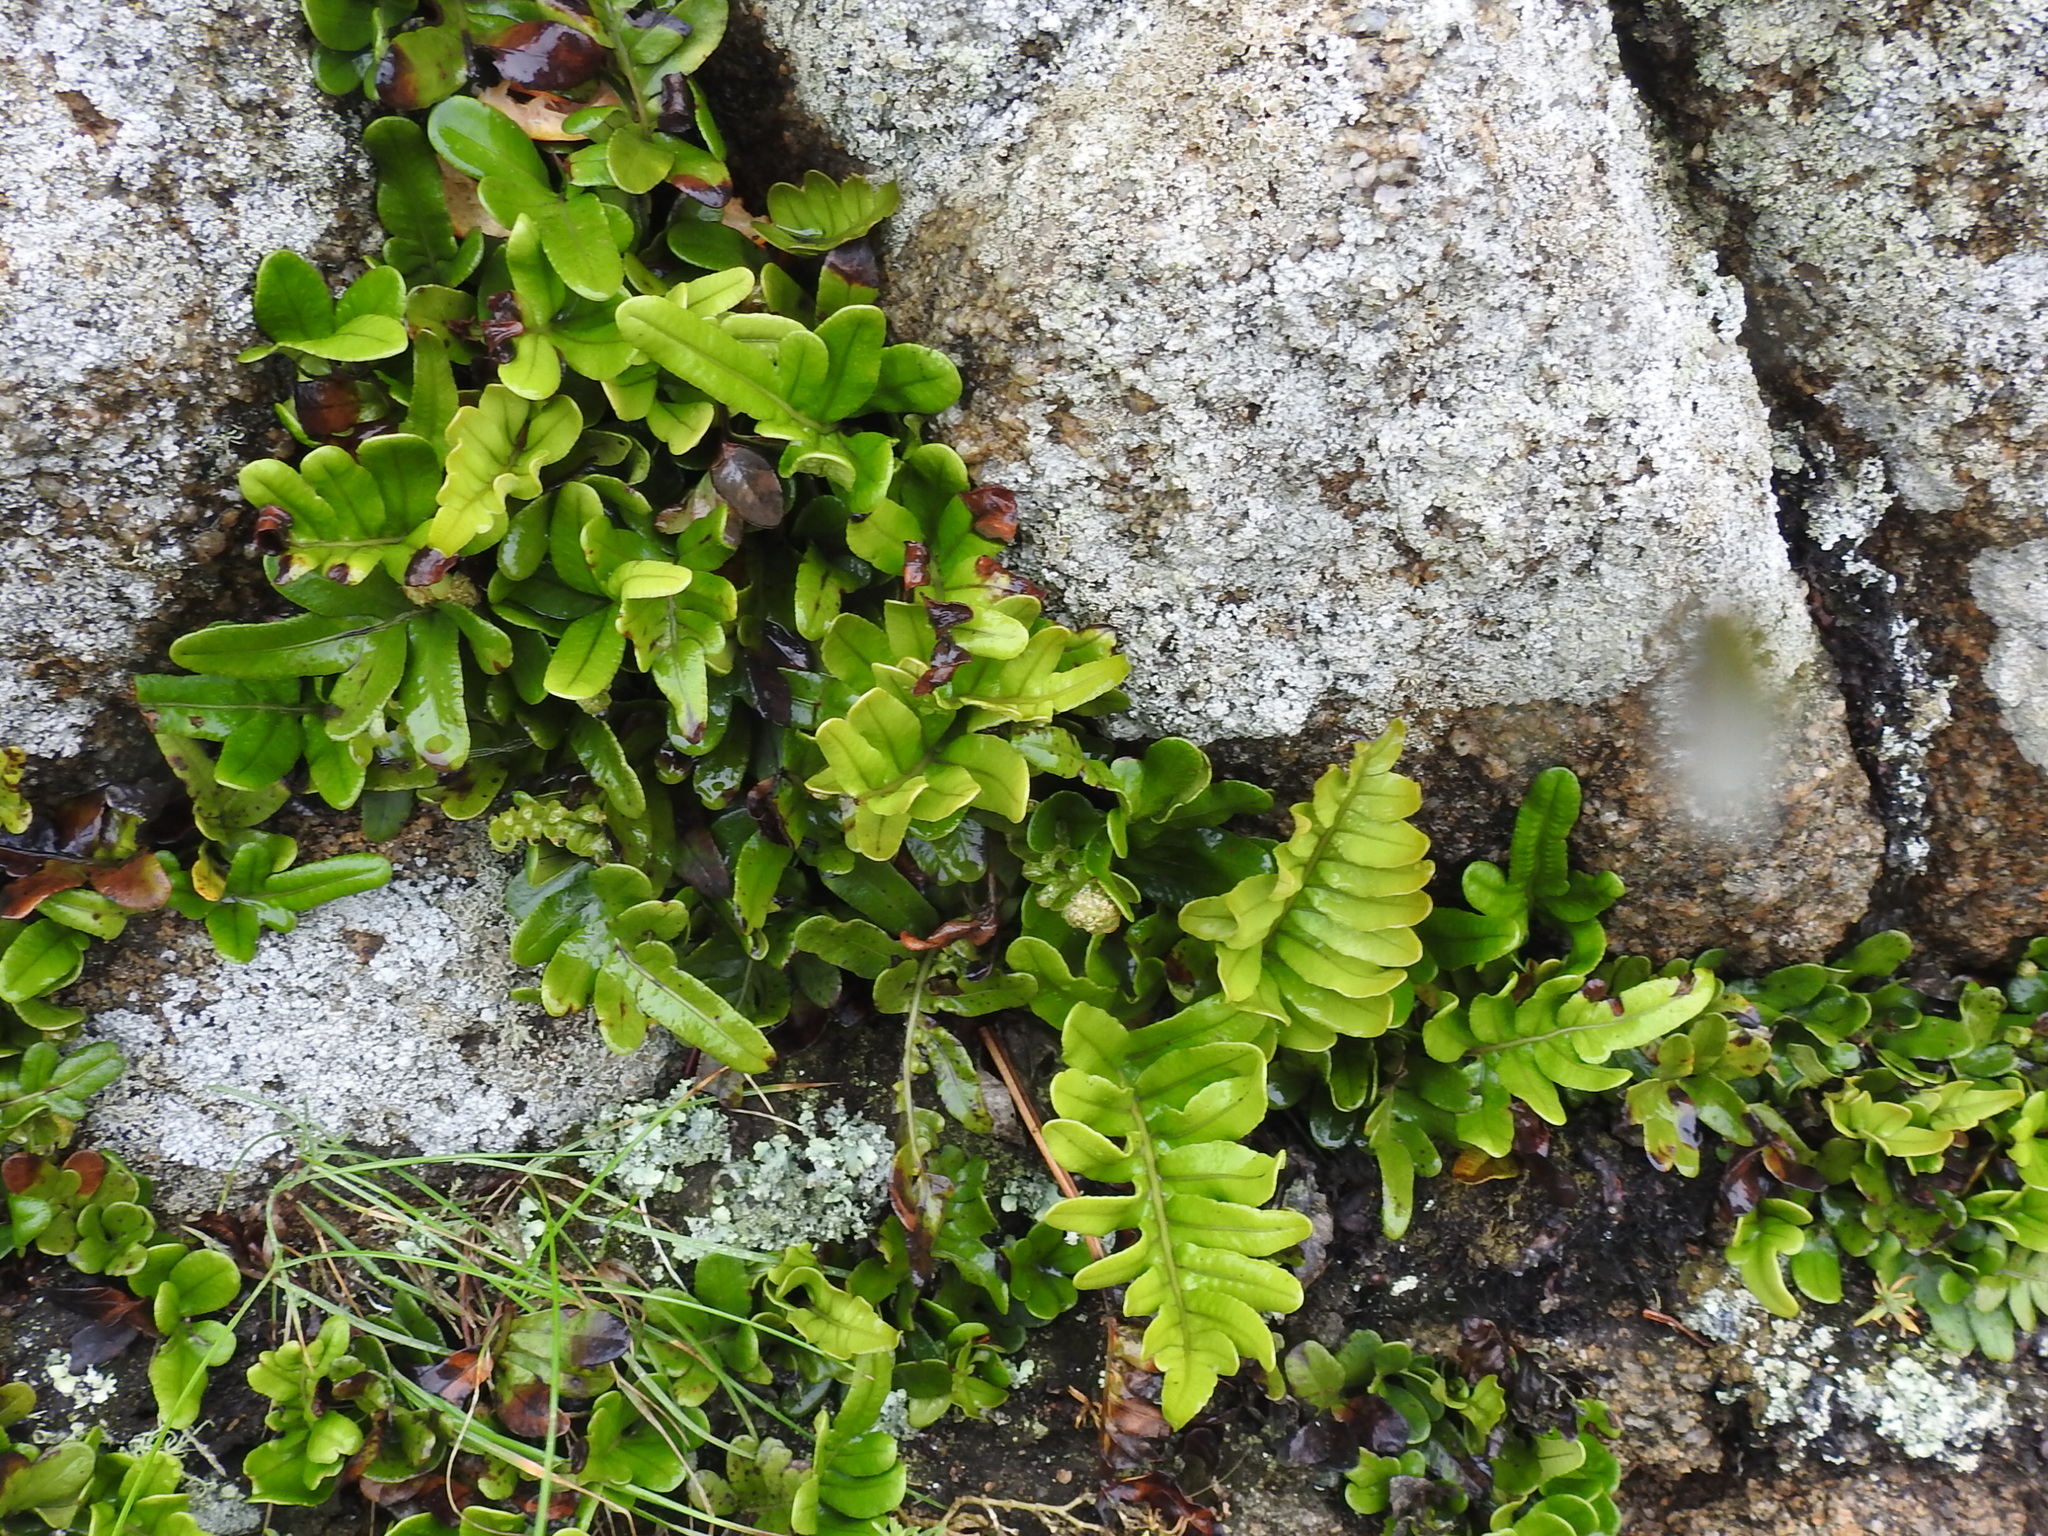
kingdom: Plantae
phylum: Tracheophyta
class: Polypodiopsida
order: Polypodiales
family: Polypodiaceae
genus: Polypodium
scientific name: Polypodium scouleri
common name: Scouler's polypody
